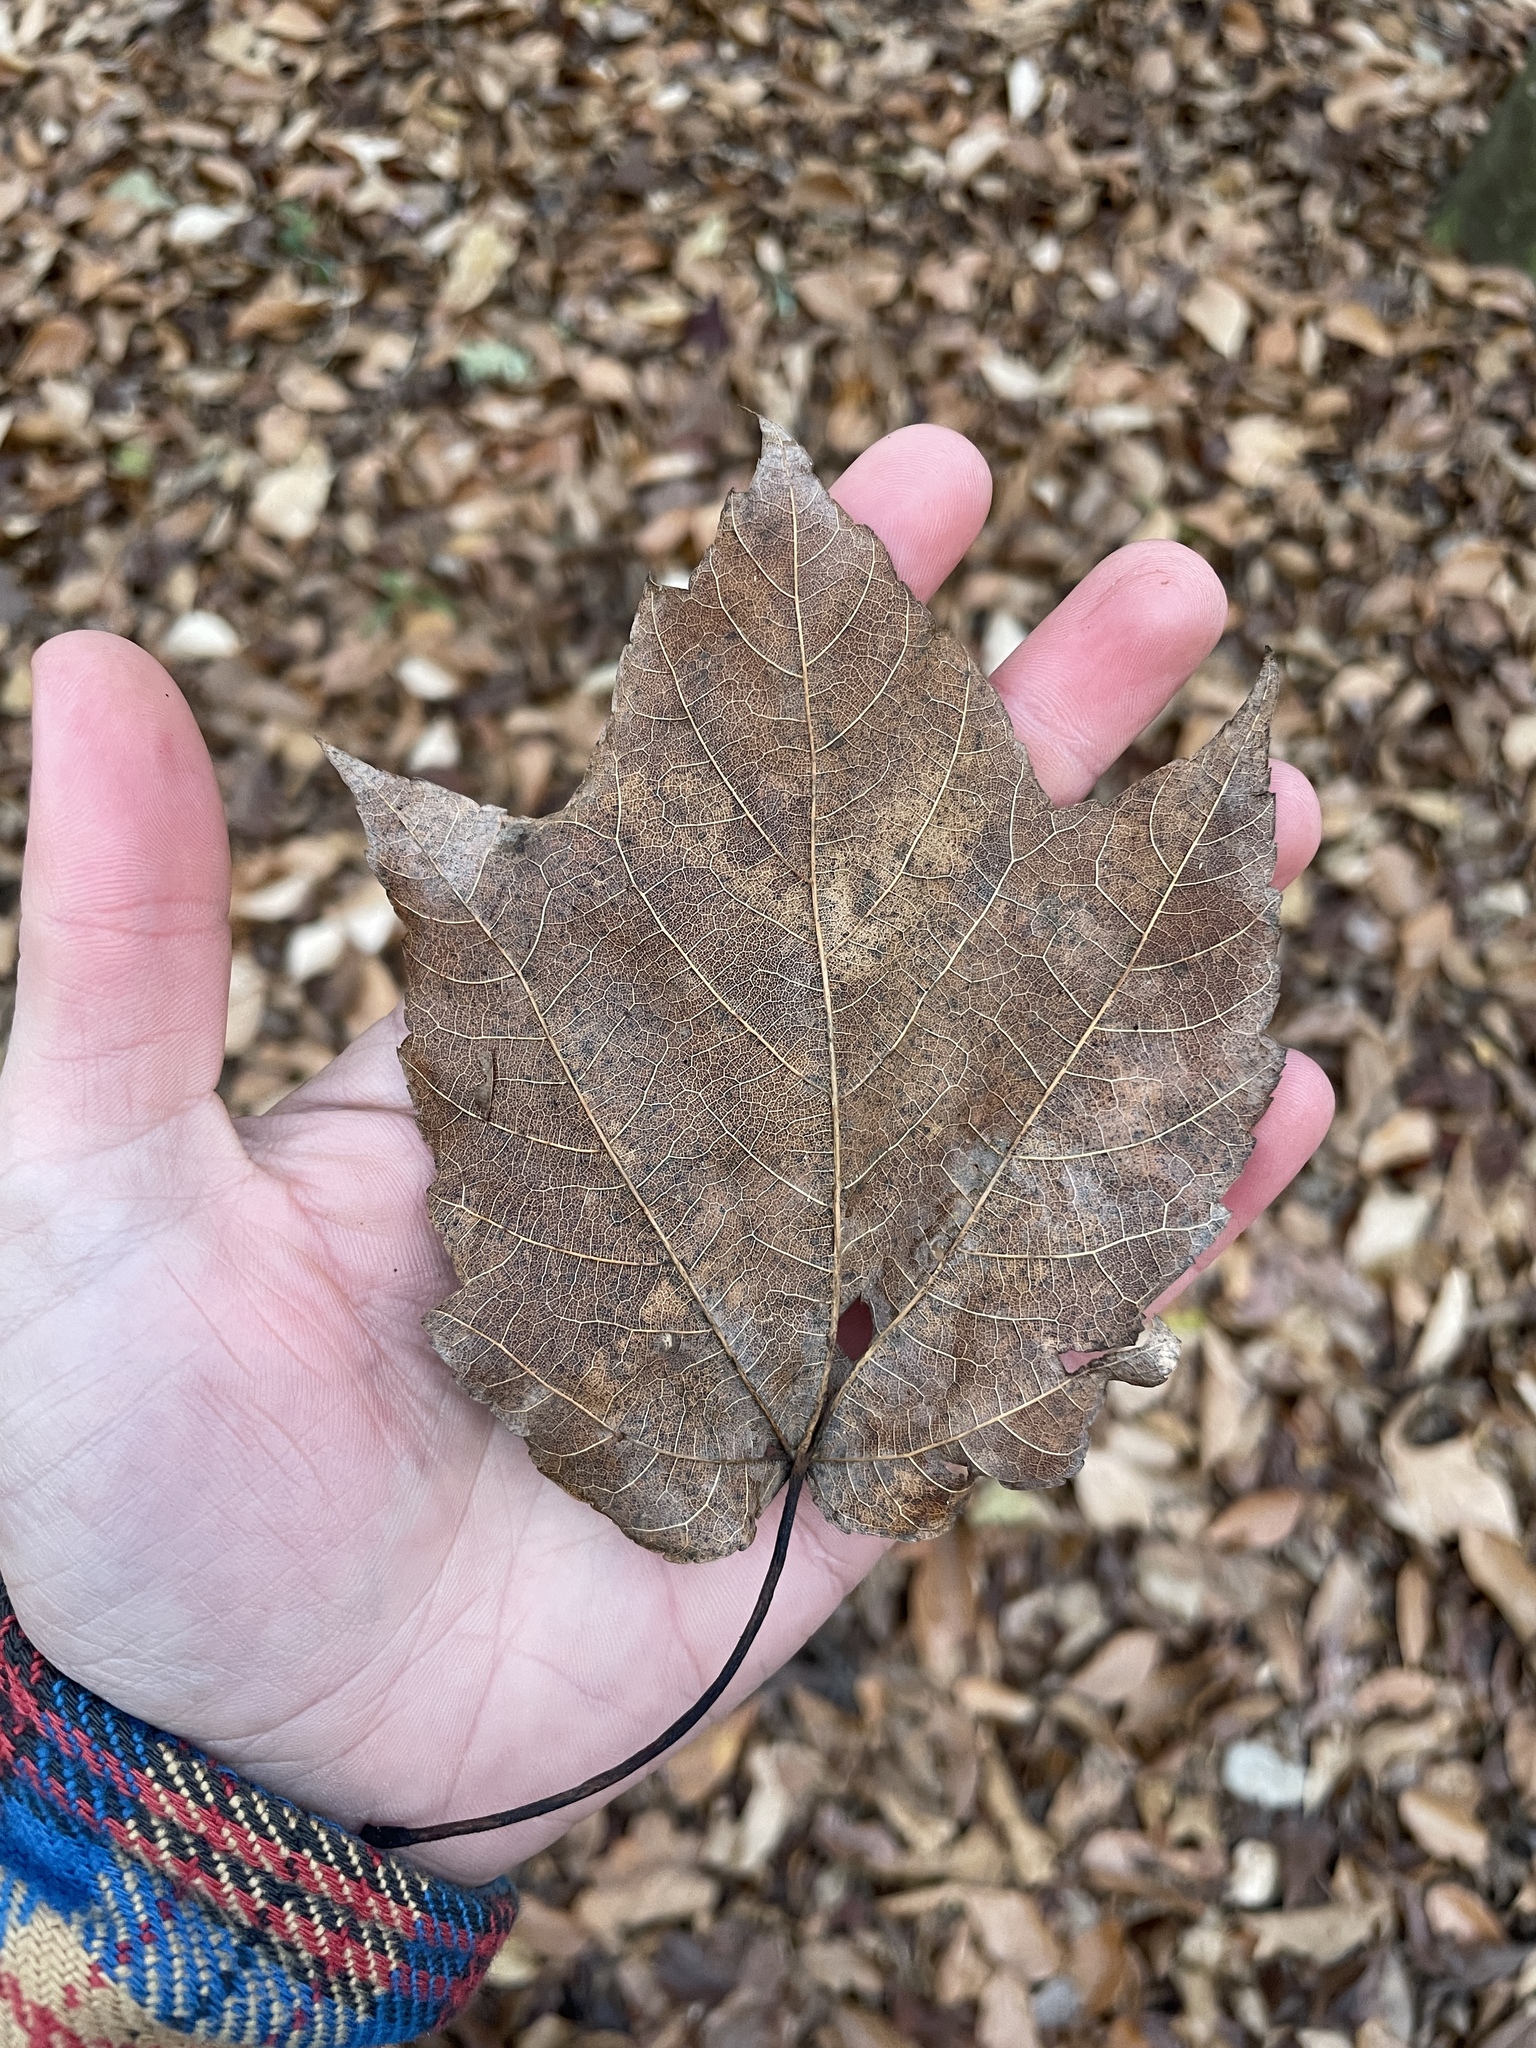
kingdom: Plantae
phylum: Tracheophyta
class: Magnoliopsida
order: Sapindales
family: Sapindaceae
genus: Acer
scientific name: Acer rubrum
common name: Red maple
